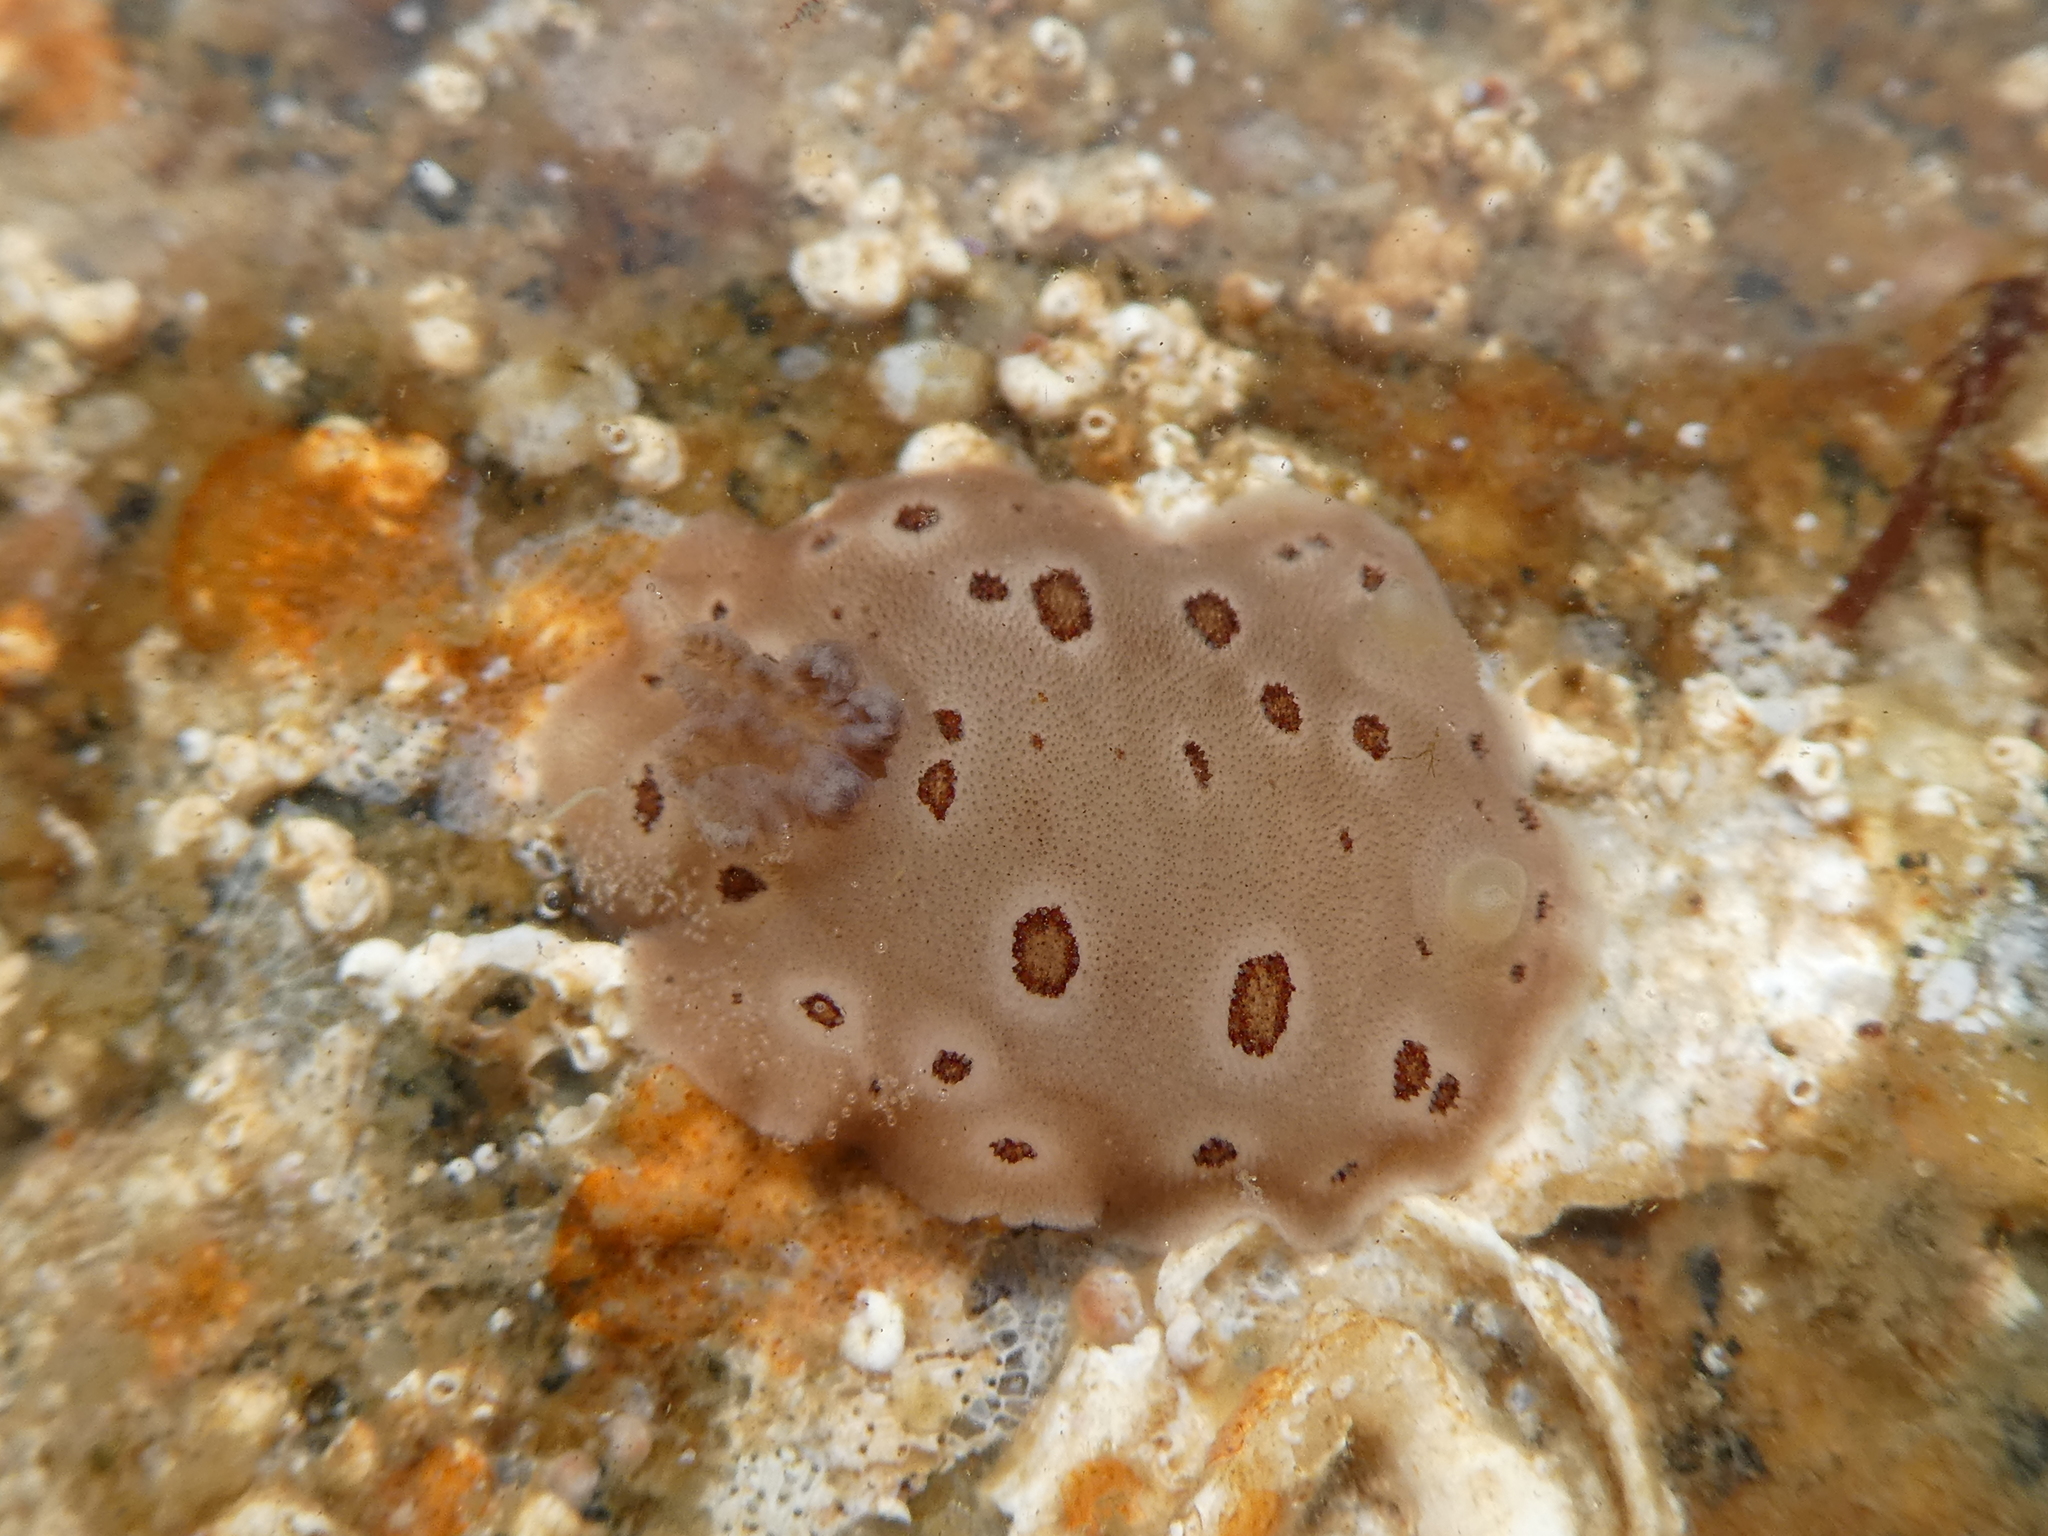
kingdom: Animalia
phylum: Mollusca
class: Gastropoda
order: Nudibranchia
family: Discodorididae
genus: Diaulula
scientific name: Diaulula odonoghuei
